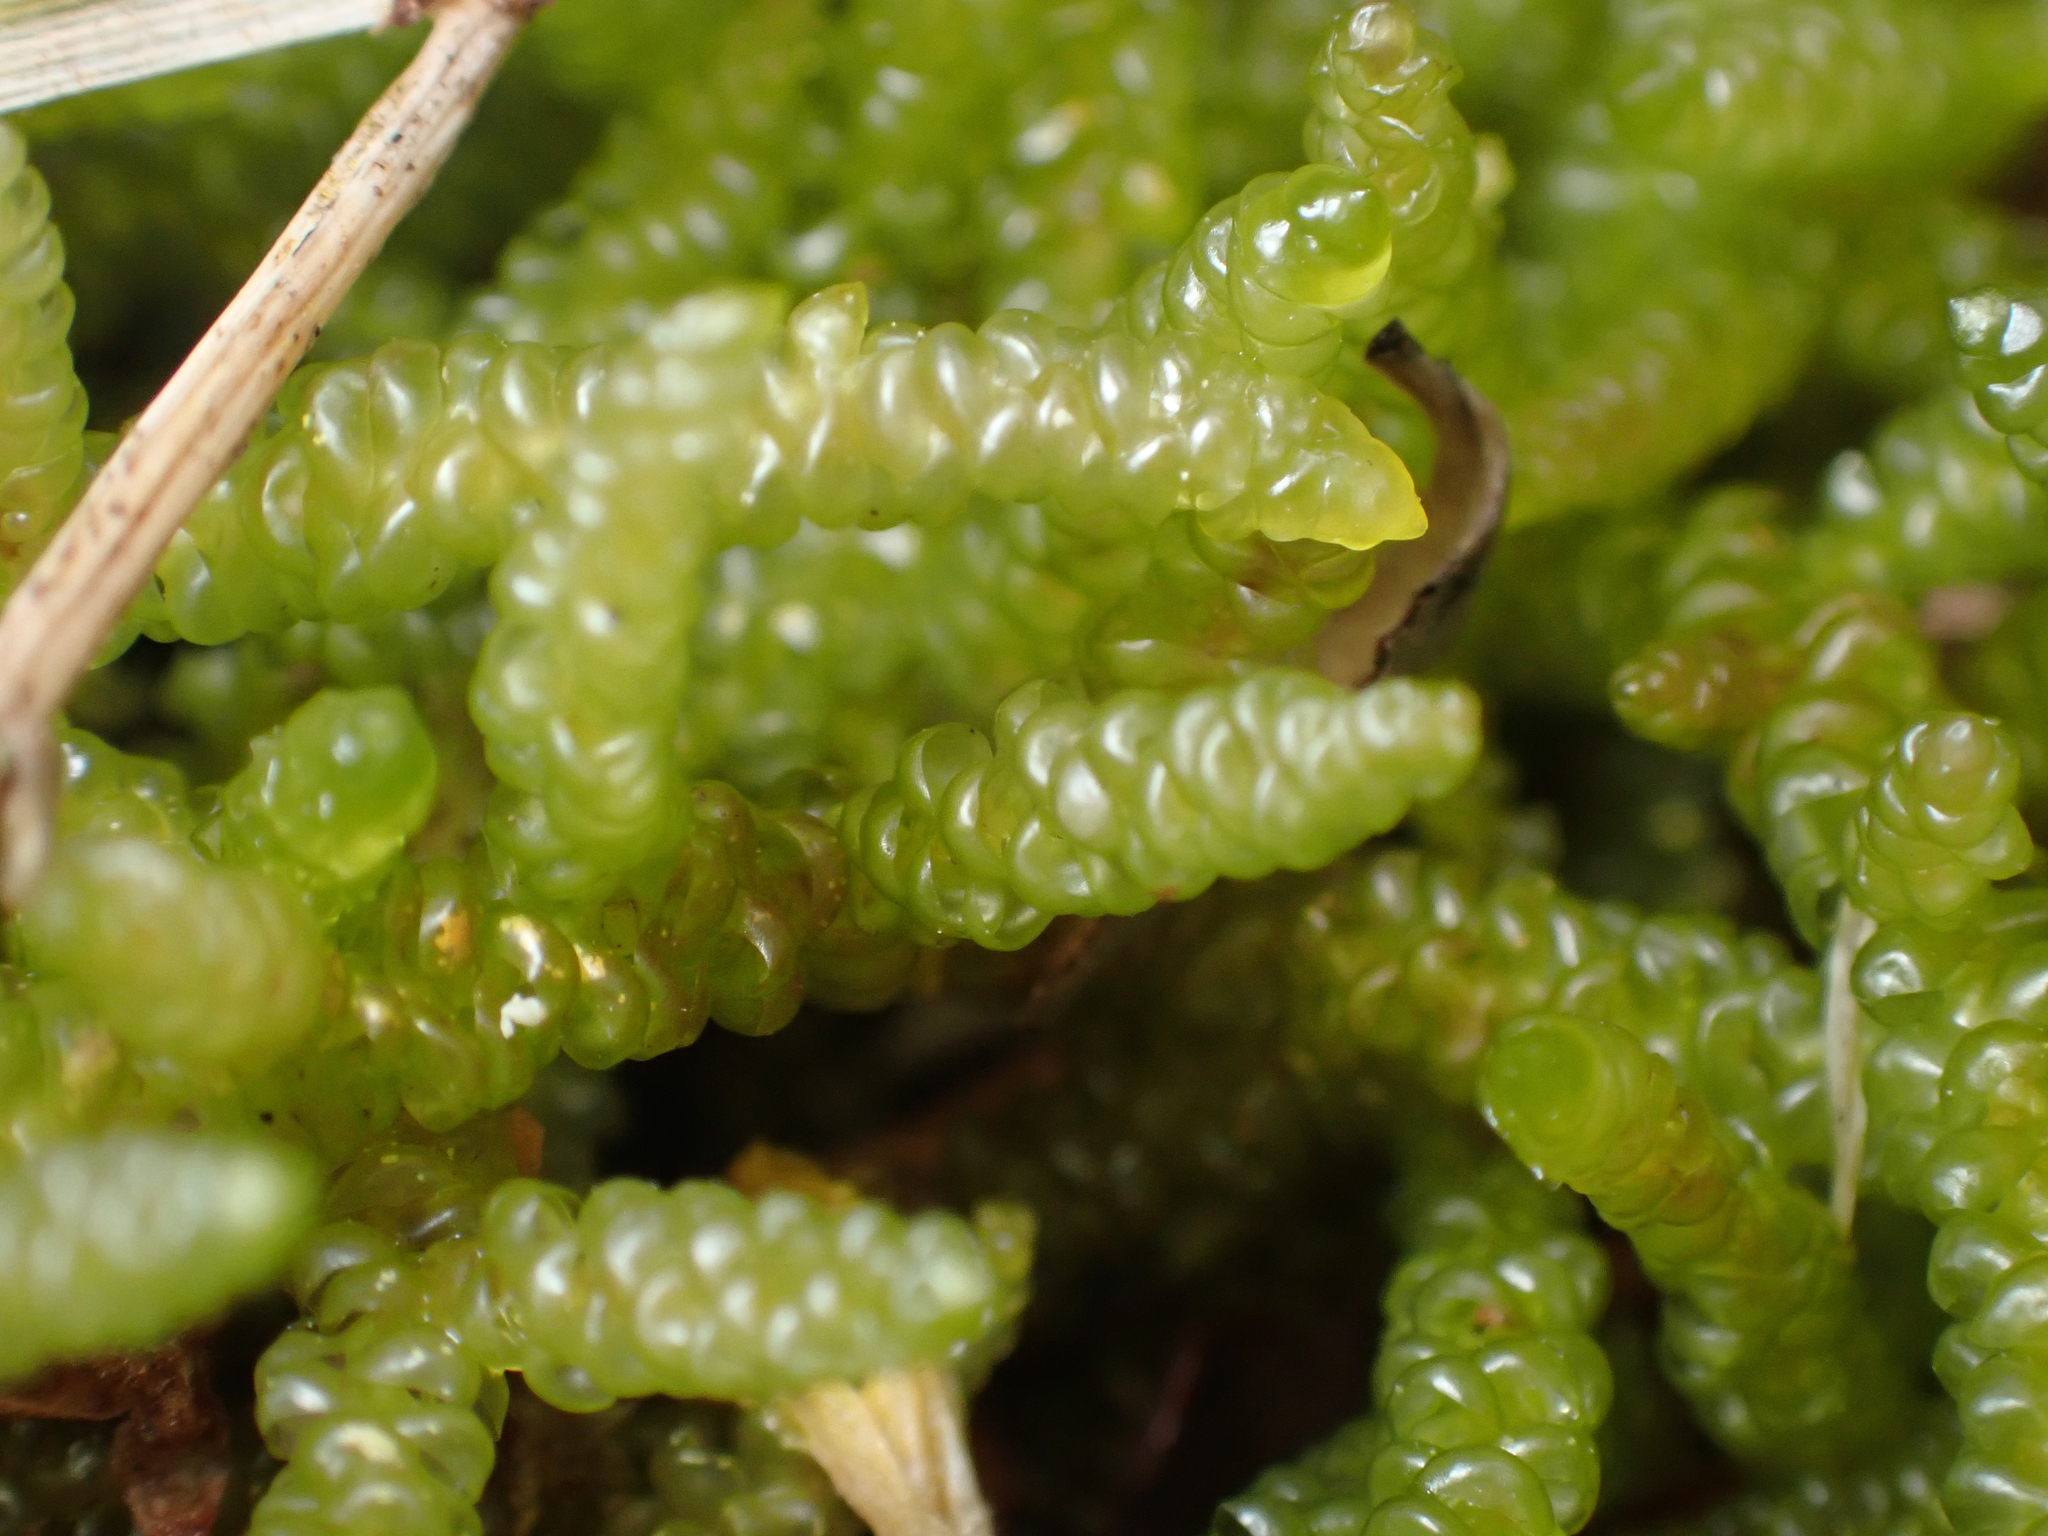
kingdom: Plantae
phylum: Bryophyta
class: Bryopsida
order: Hypnales
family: Acrocladiaceae
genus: Acrocladium
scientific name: Acrocladium chlamydophyllum
